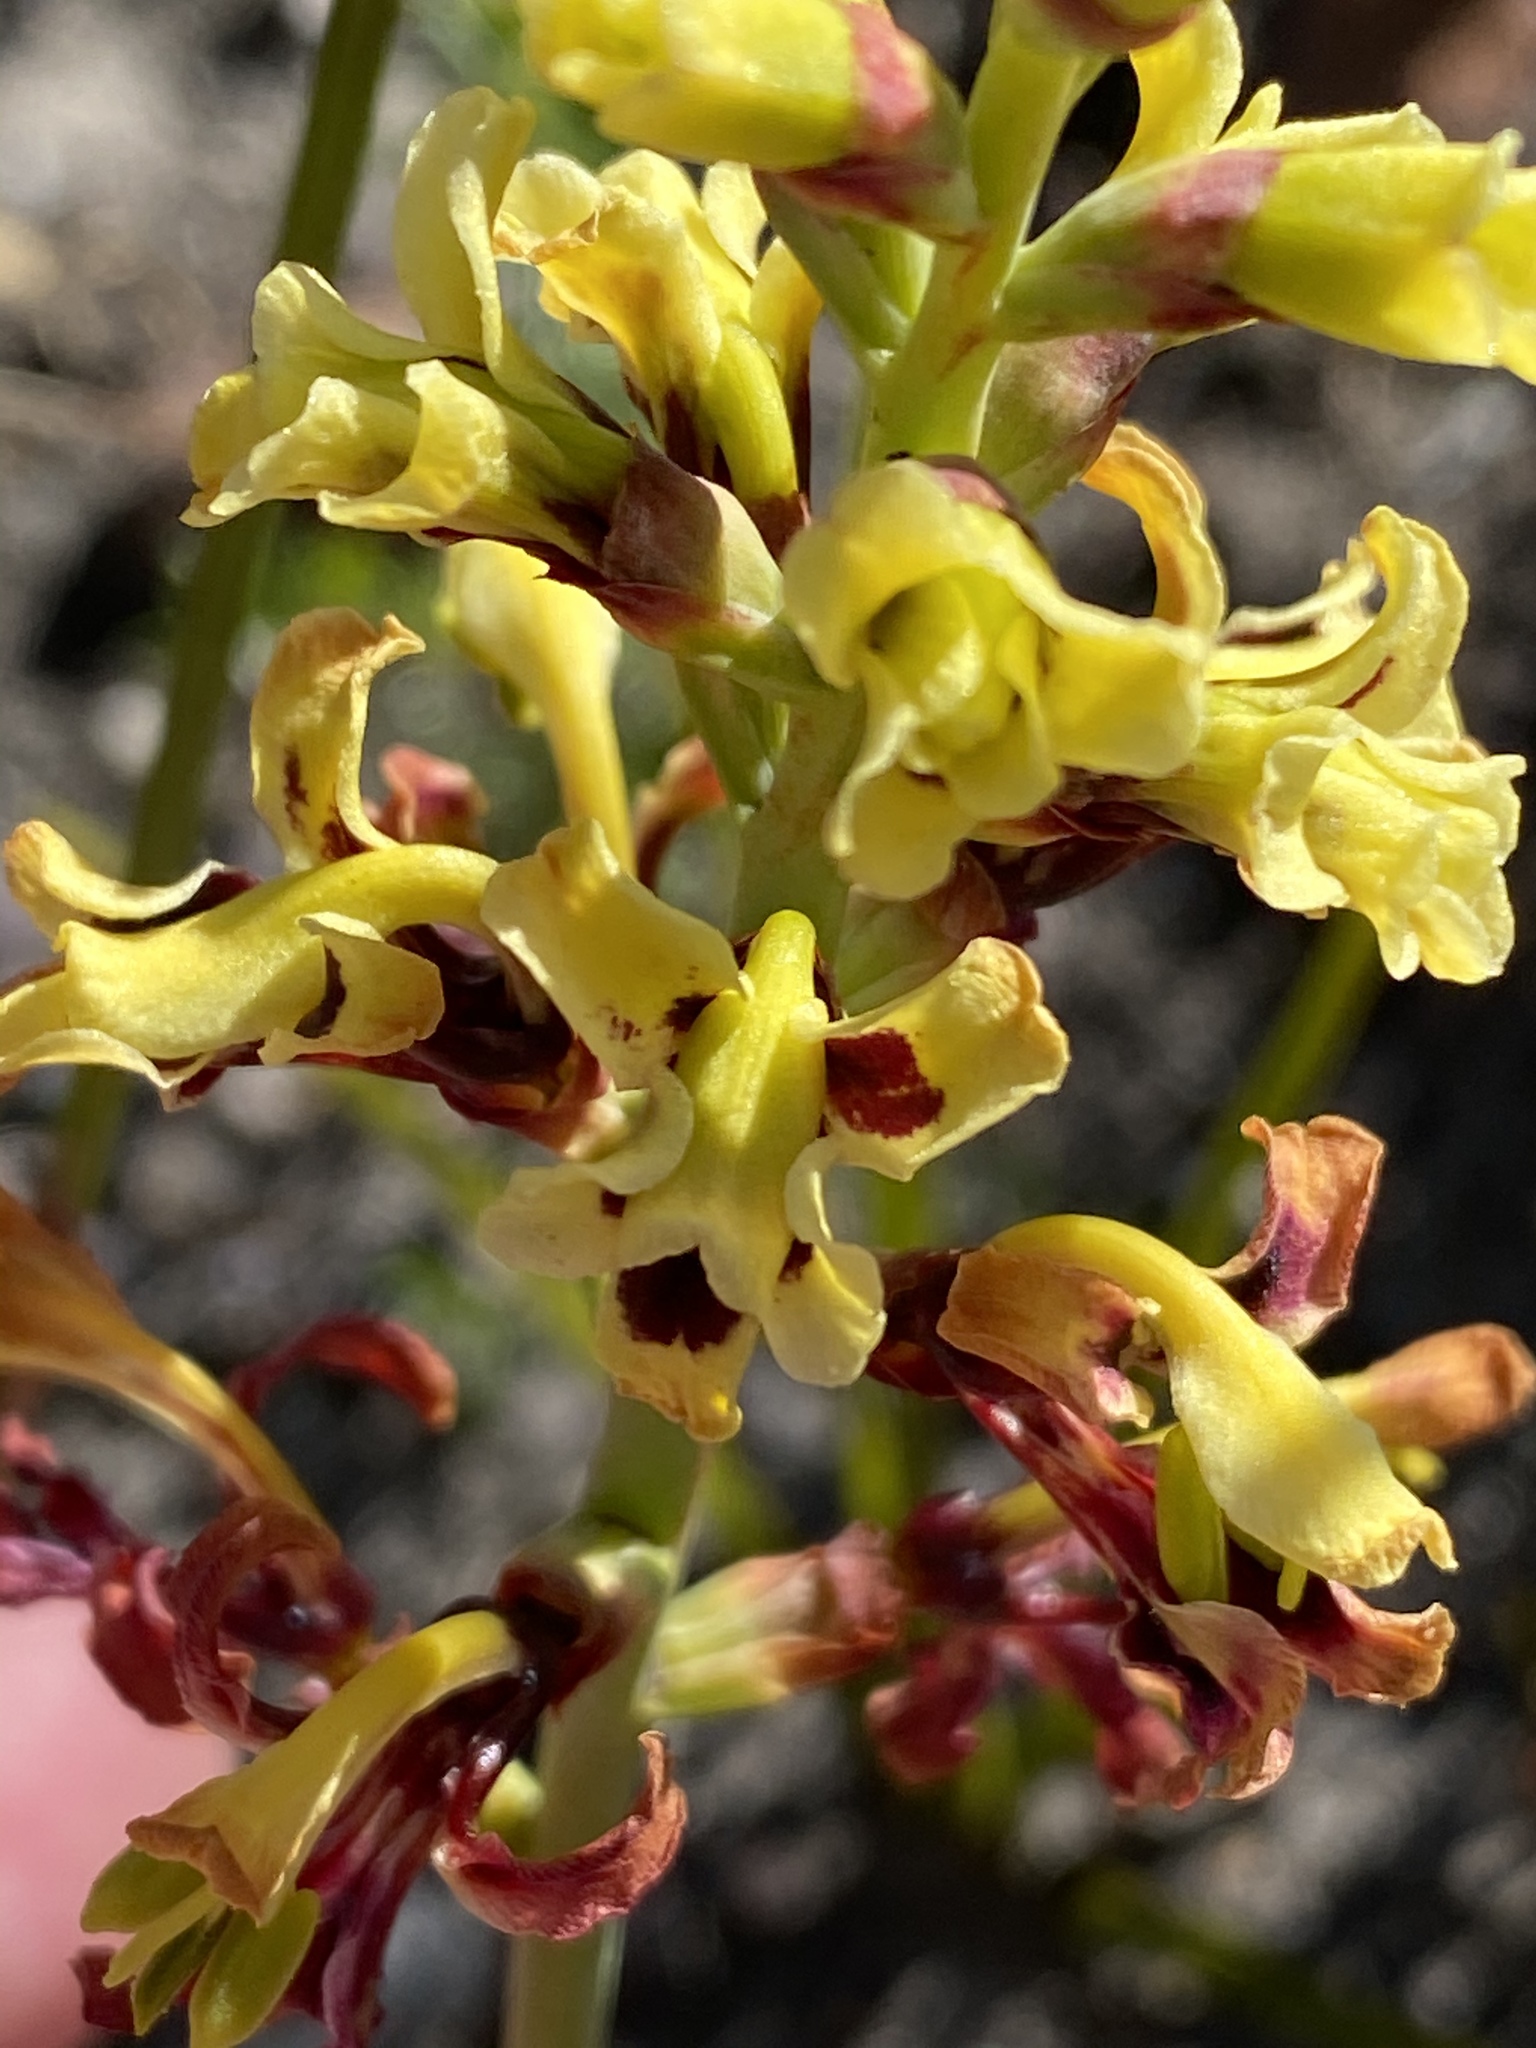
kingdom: Plantae
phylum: Tracheophyta
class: Liliopsida
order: Asparagales
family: Iridaceae
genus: Tritoniopsis
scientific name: Tritoniopsis parviflora
